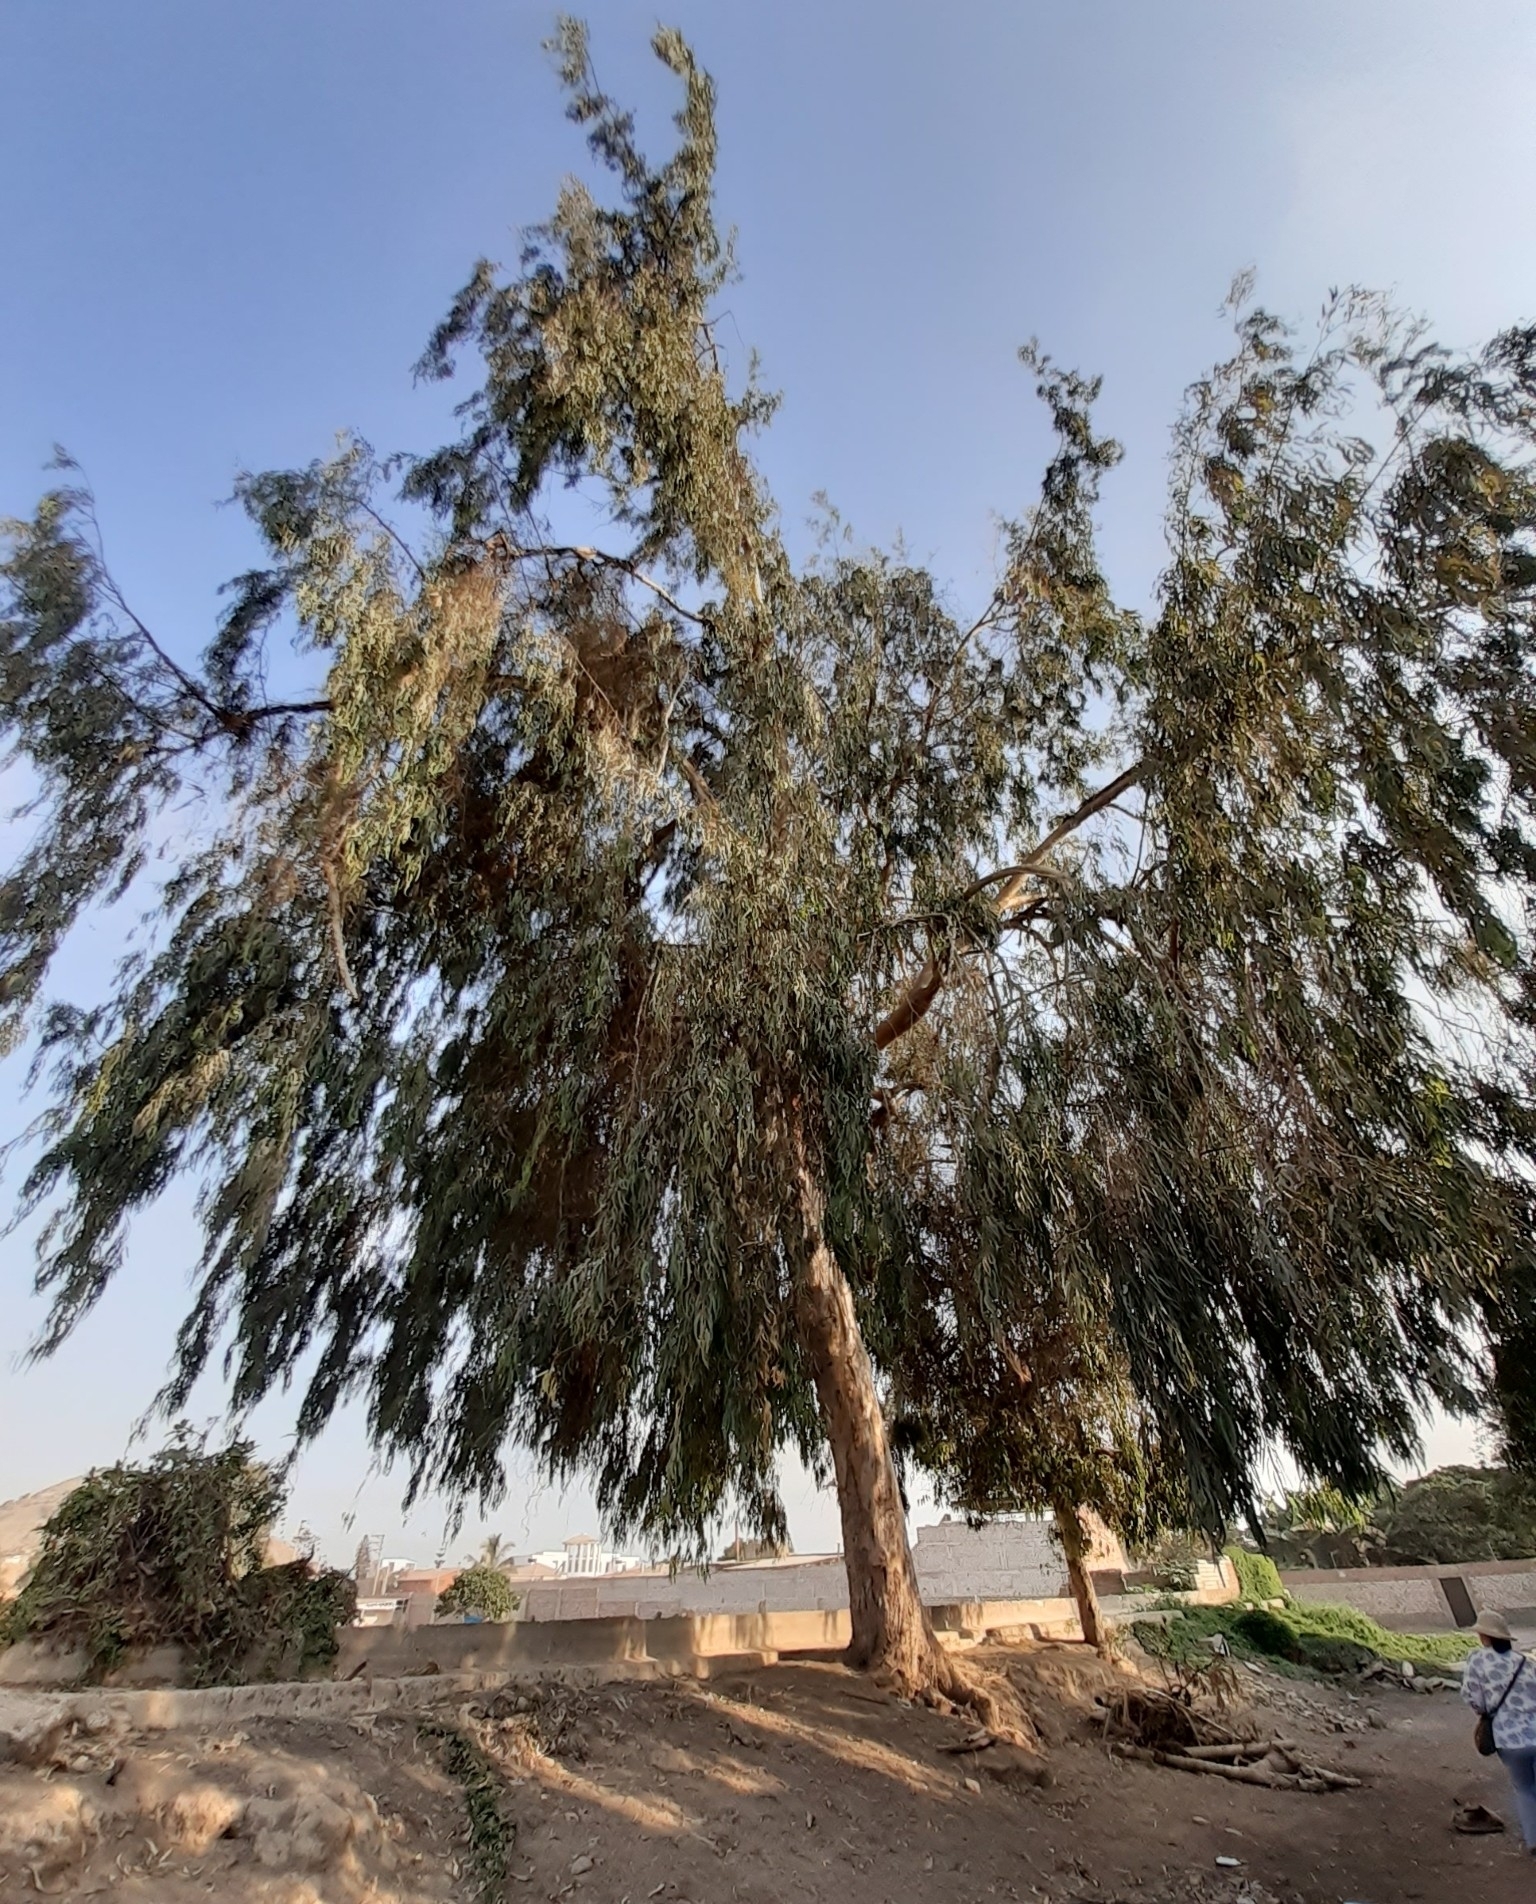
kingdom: Plantae
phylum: Tracheophyta
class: Magnoliopsida
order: Myrtales
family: Myrtaceae
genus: Eucalyptus
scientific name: Eucalyptus globulus
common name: Southern blue-gum
